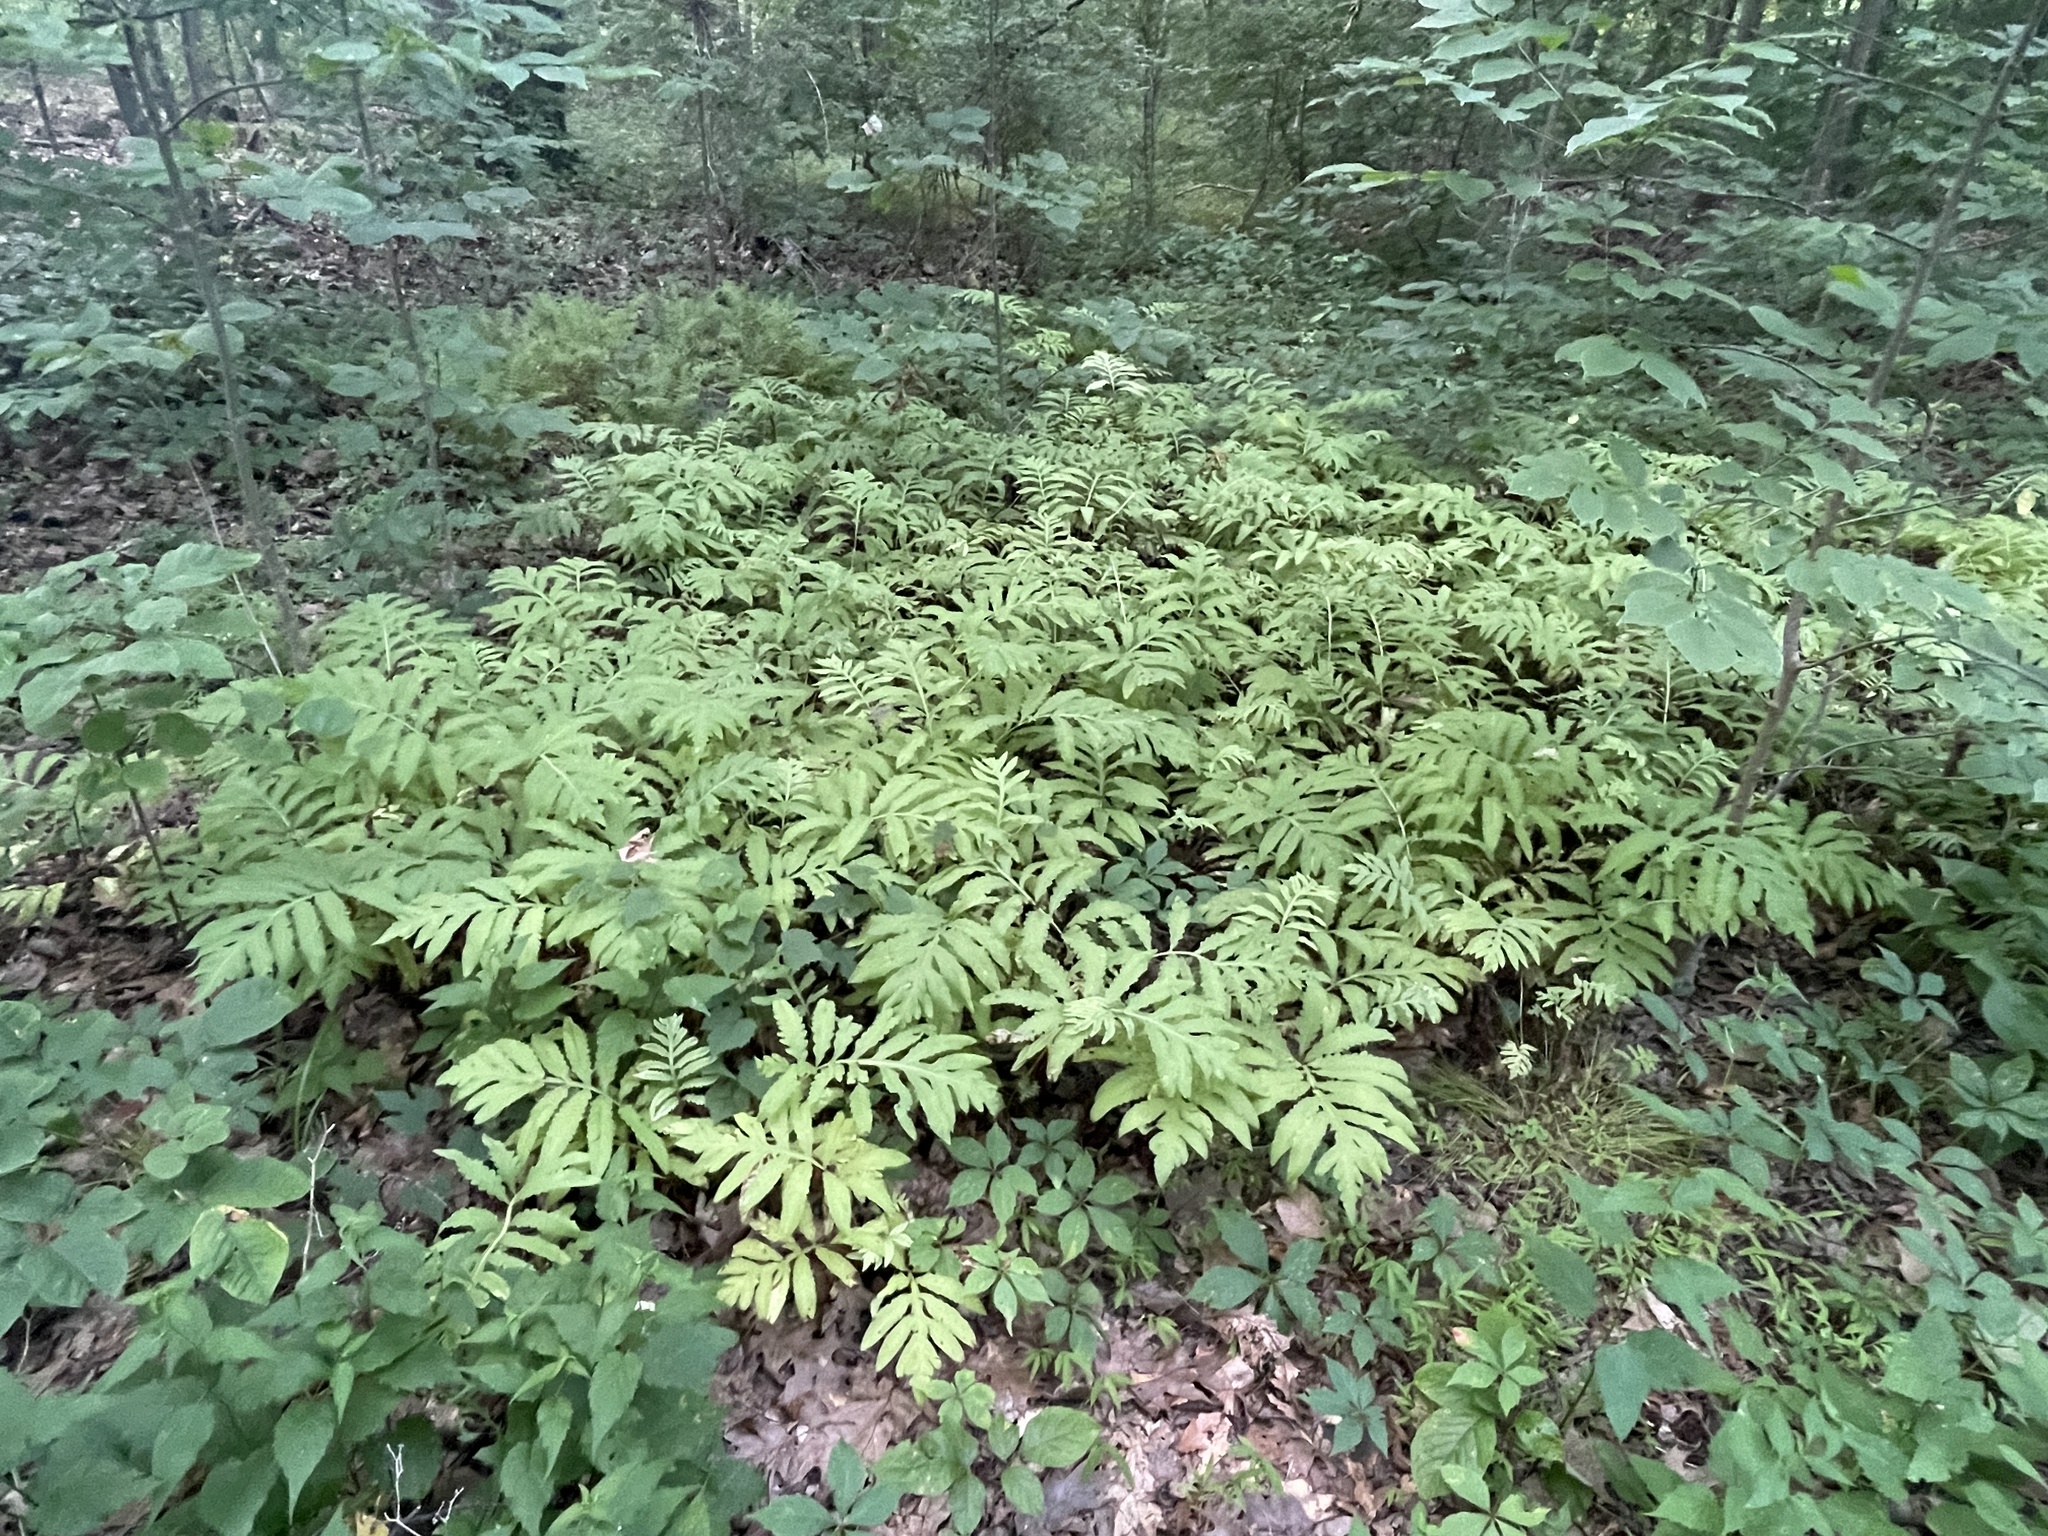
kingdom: Plantae
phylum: Tracheophyta
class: Polypodiopsida
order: Polypodiales
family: Onocleaceae
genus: Onoclea
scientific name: Onoclea sensibilis
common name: Sensitive fern
